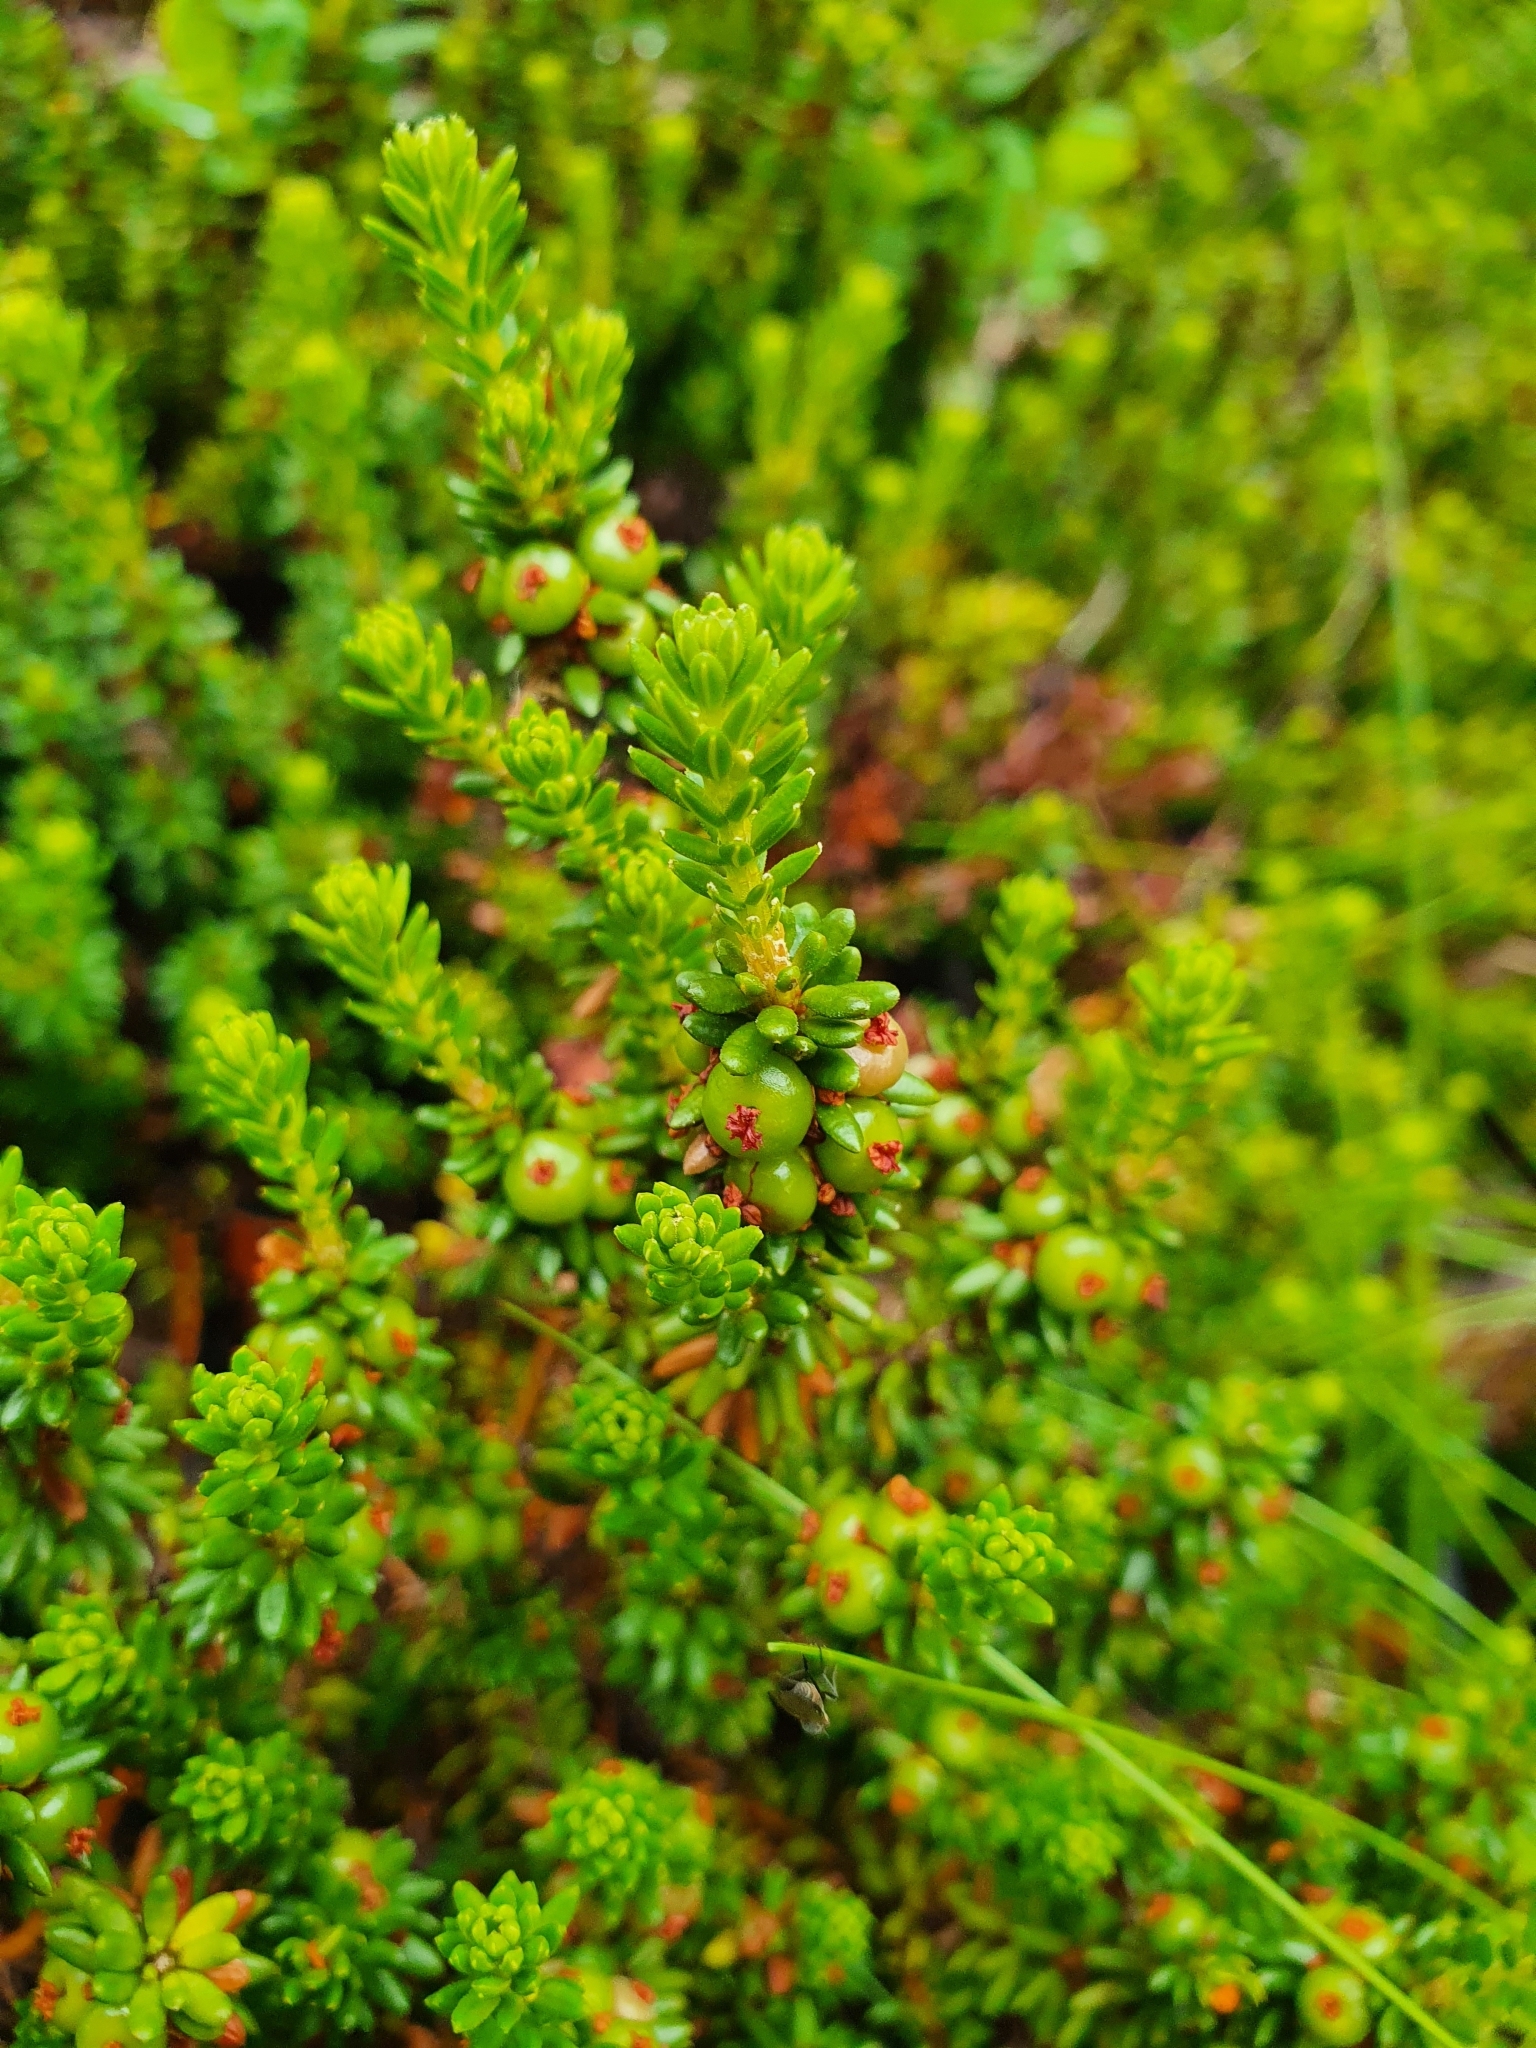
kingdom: Plantae
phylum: Tracheophyta
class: Magnoliopsida
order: Ericales
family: Ericaceae
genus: Empetrum
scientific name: Empetrum nigrum
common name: Black crowberry
